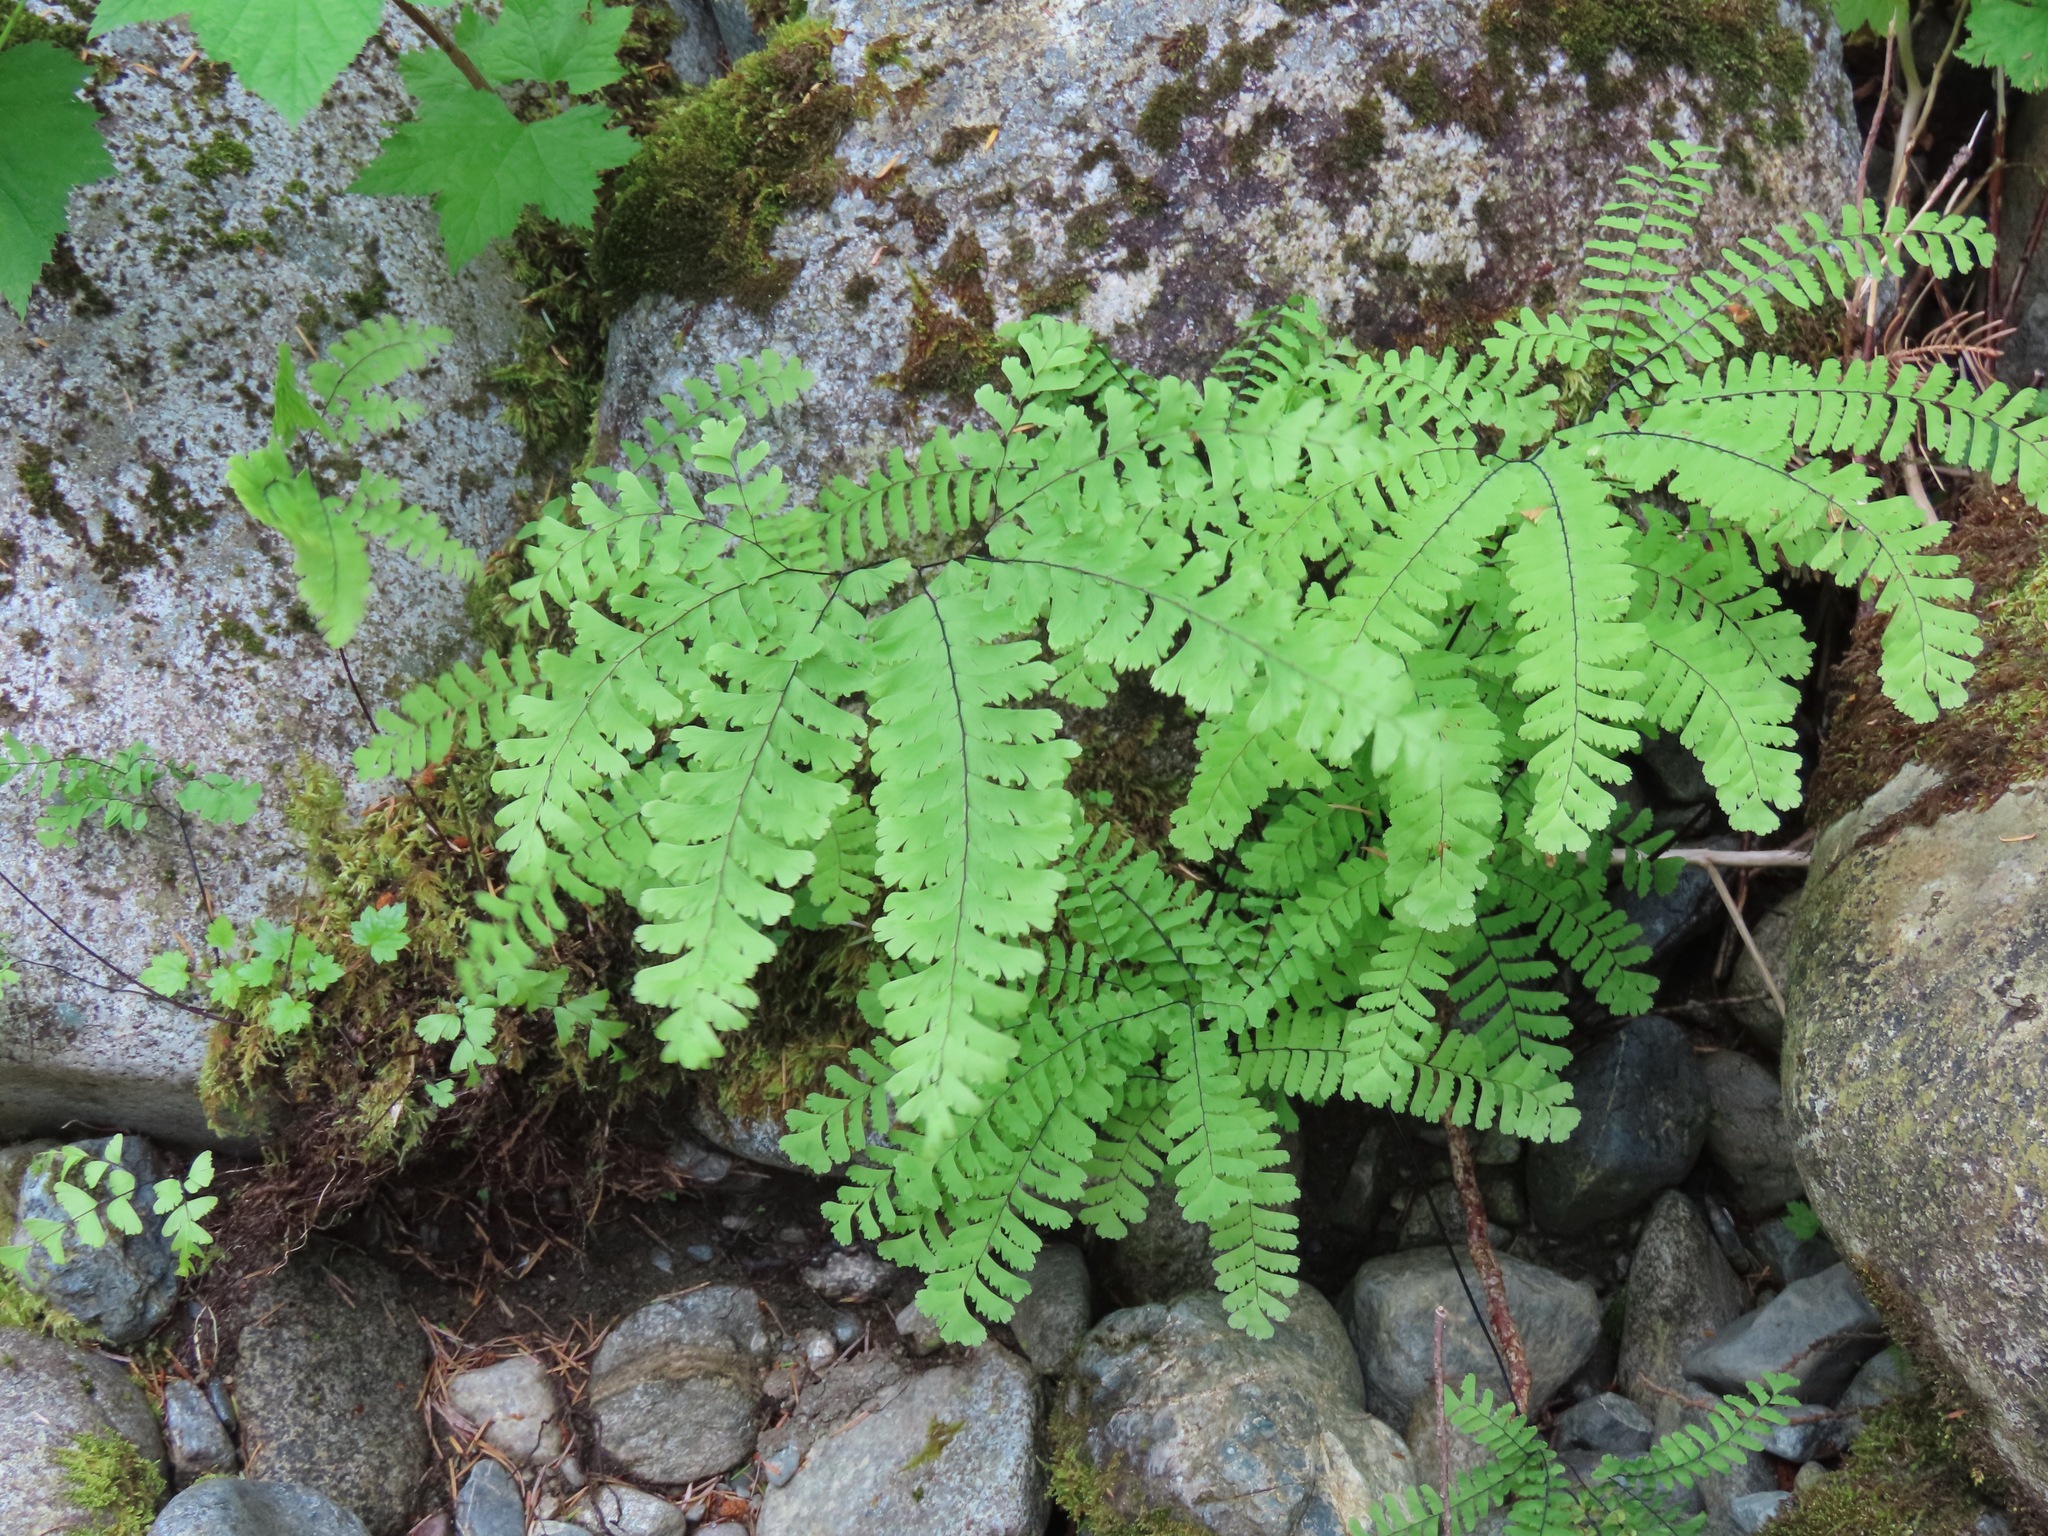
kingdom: Plantae
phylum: Tracheophyta
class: Polypodiopsida
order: Polypodiales
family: Pteridaceae
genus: Adiantum
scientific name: Adiantum aleuticum
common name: Aleutian maidenhair fern
